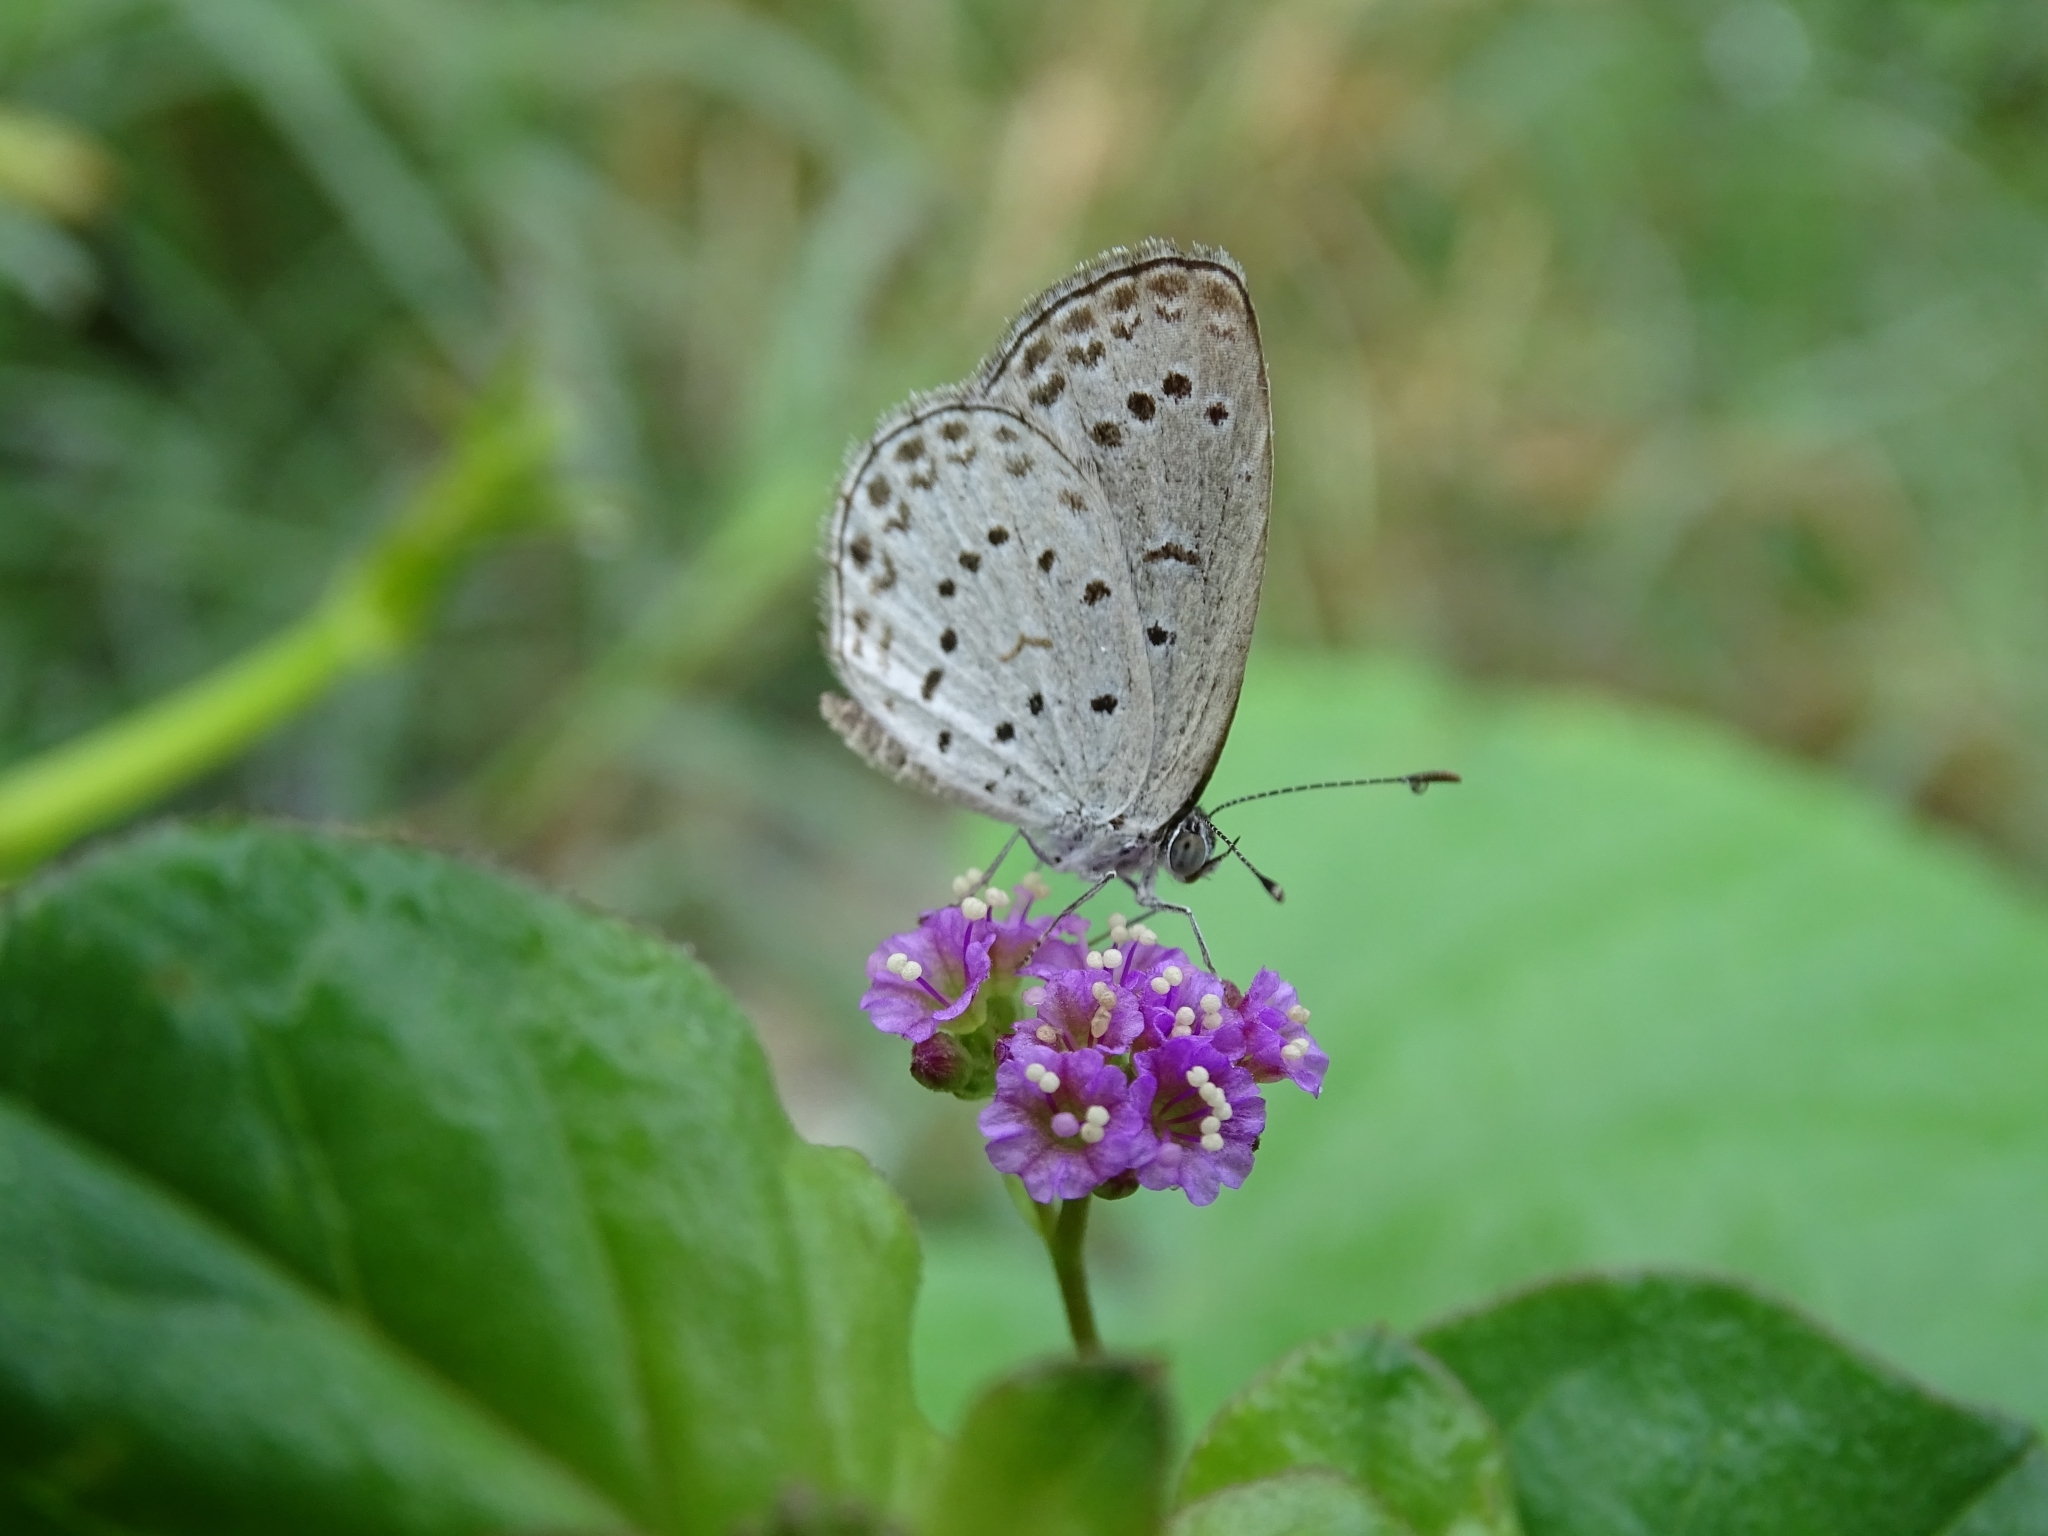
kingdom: Animalia
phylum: Arthropoda
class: Insecta
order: Lepidoptera
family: Lycaenidae
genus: Pseudozizeeria
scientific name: Pseudozizeeria maha
